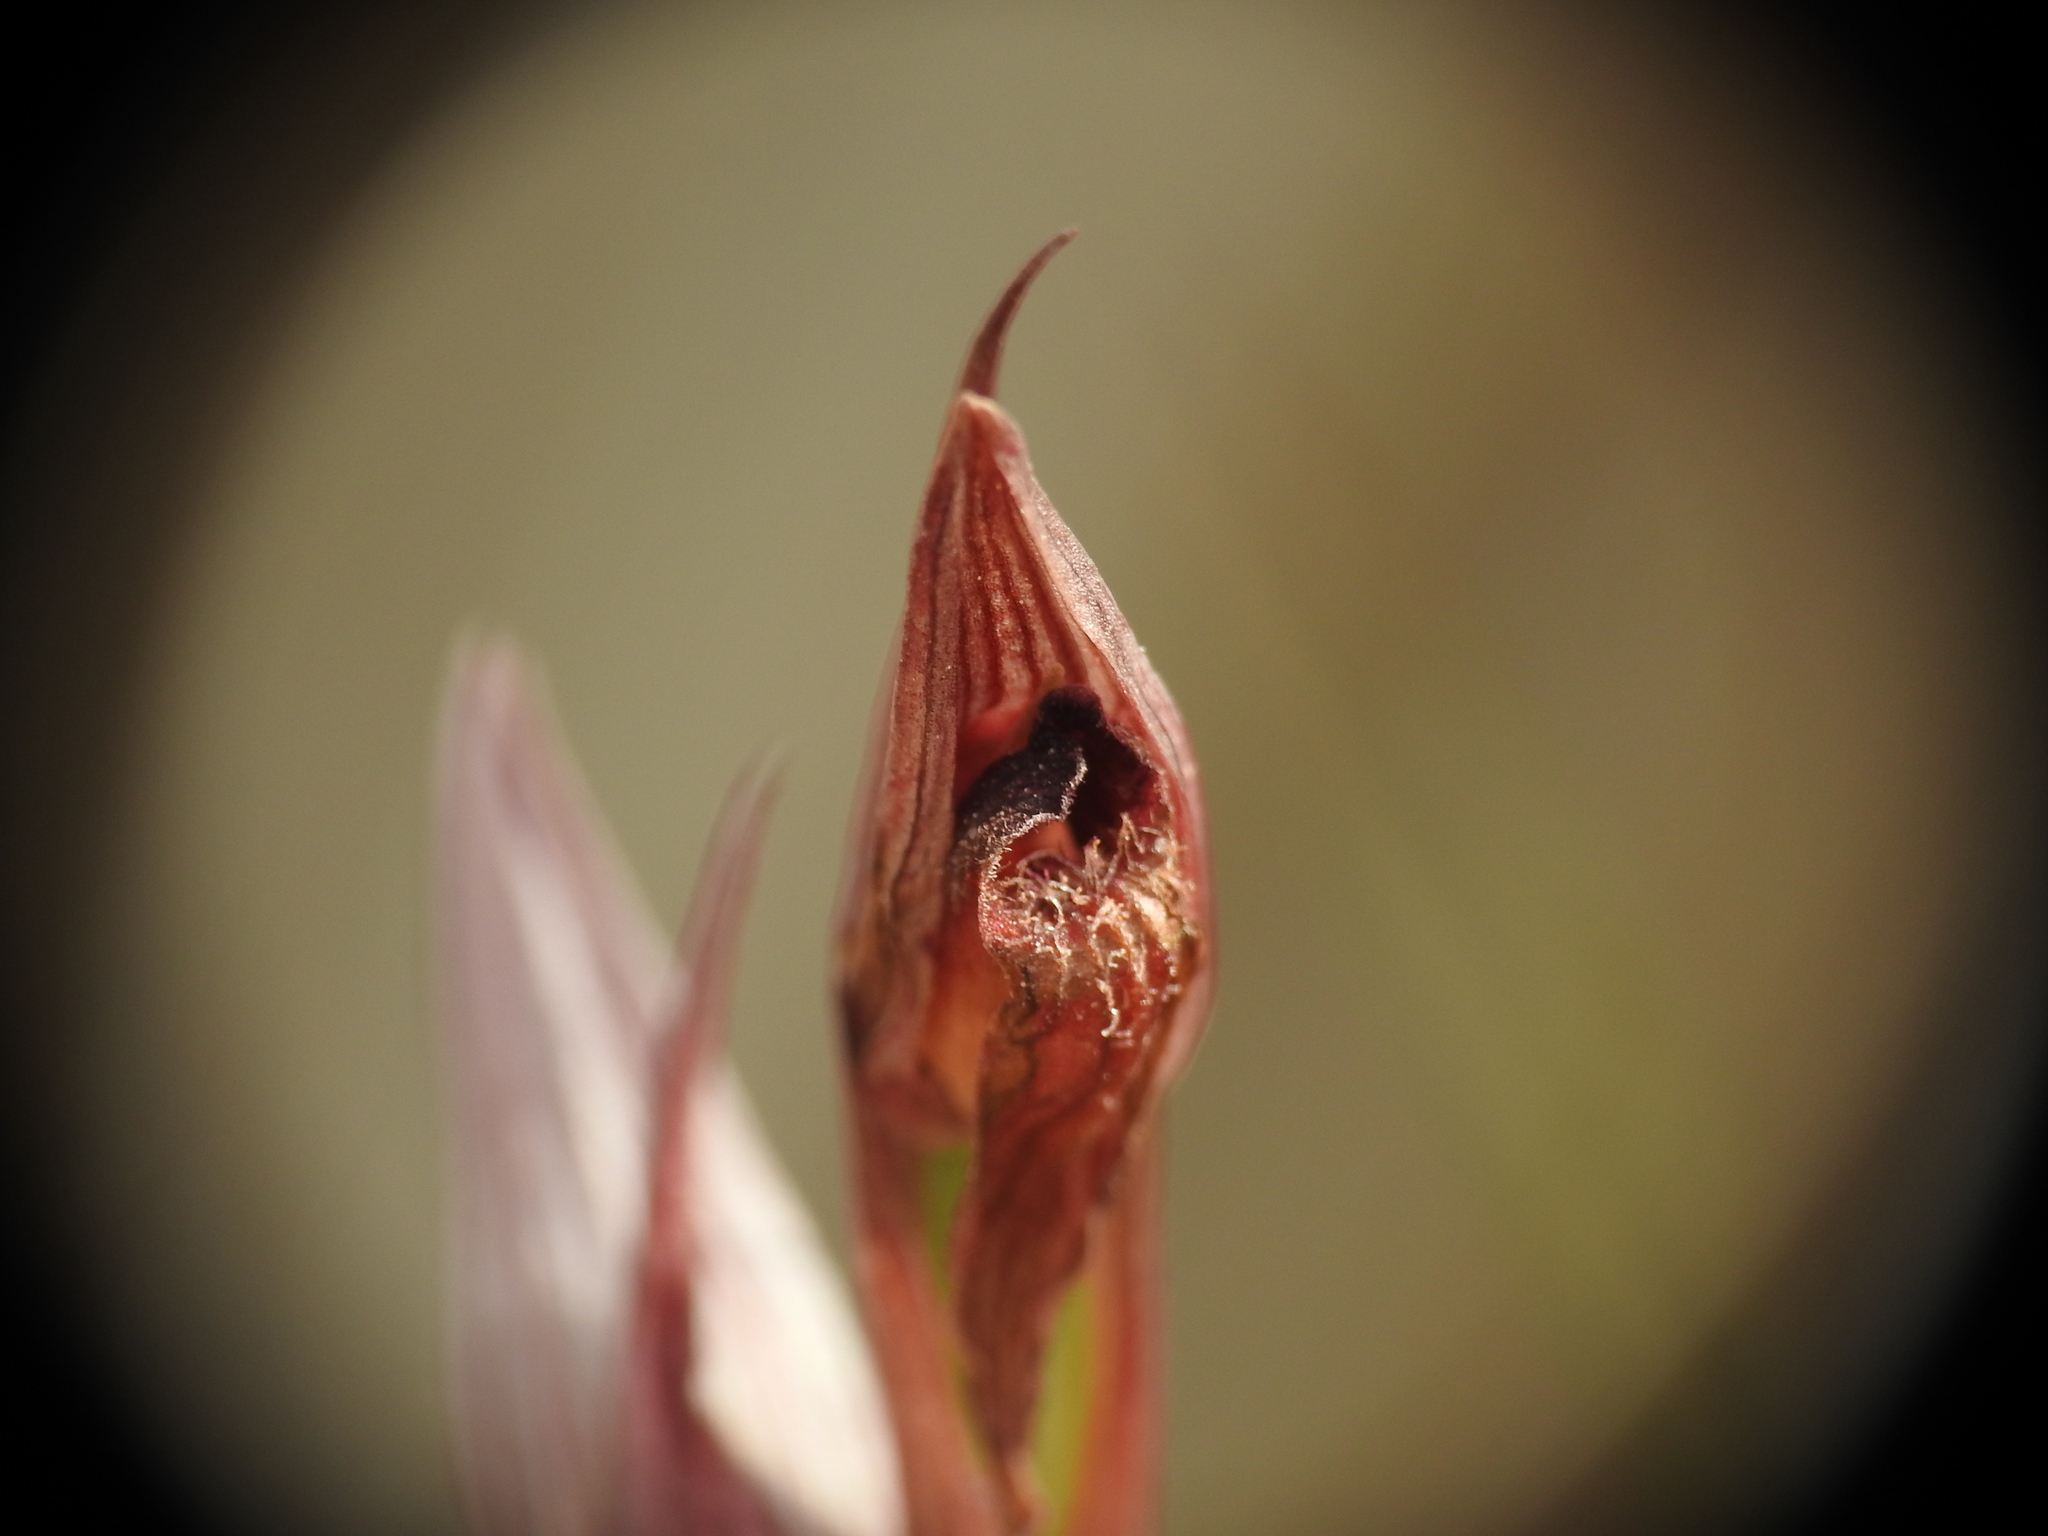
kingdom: Plantae
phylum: Tracheophyta
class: Liliopsida
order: Asparagales
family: Orchidaceae
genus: Serapias
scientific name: Serapias bergonii
